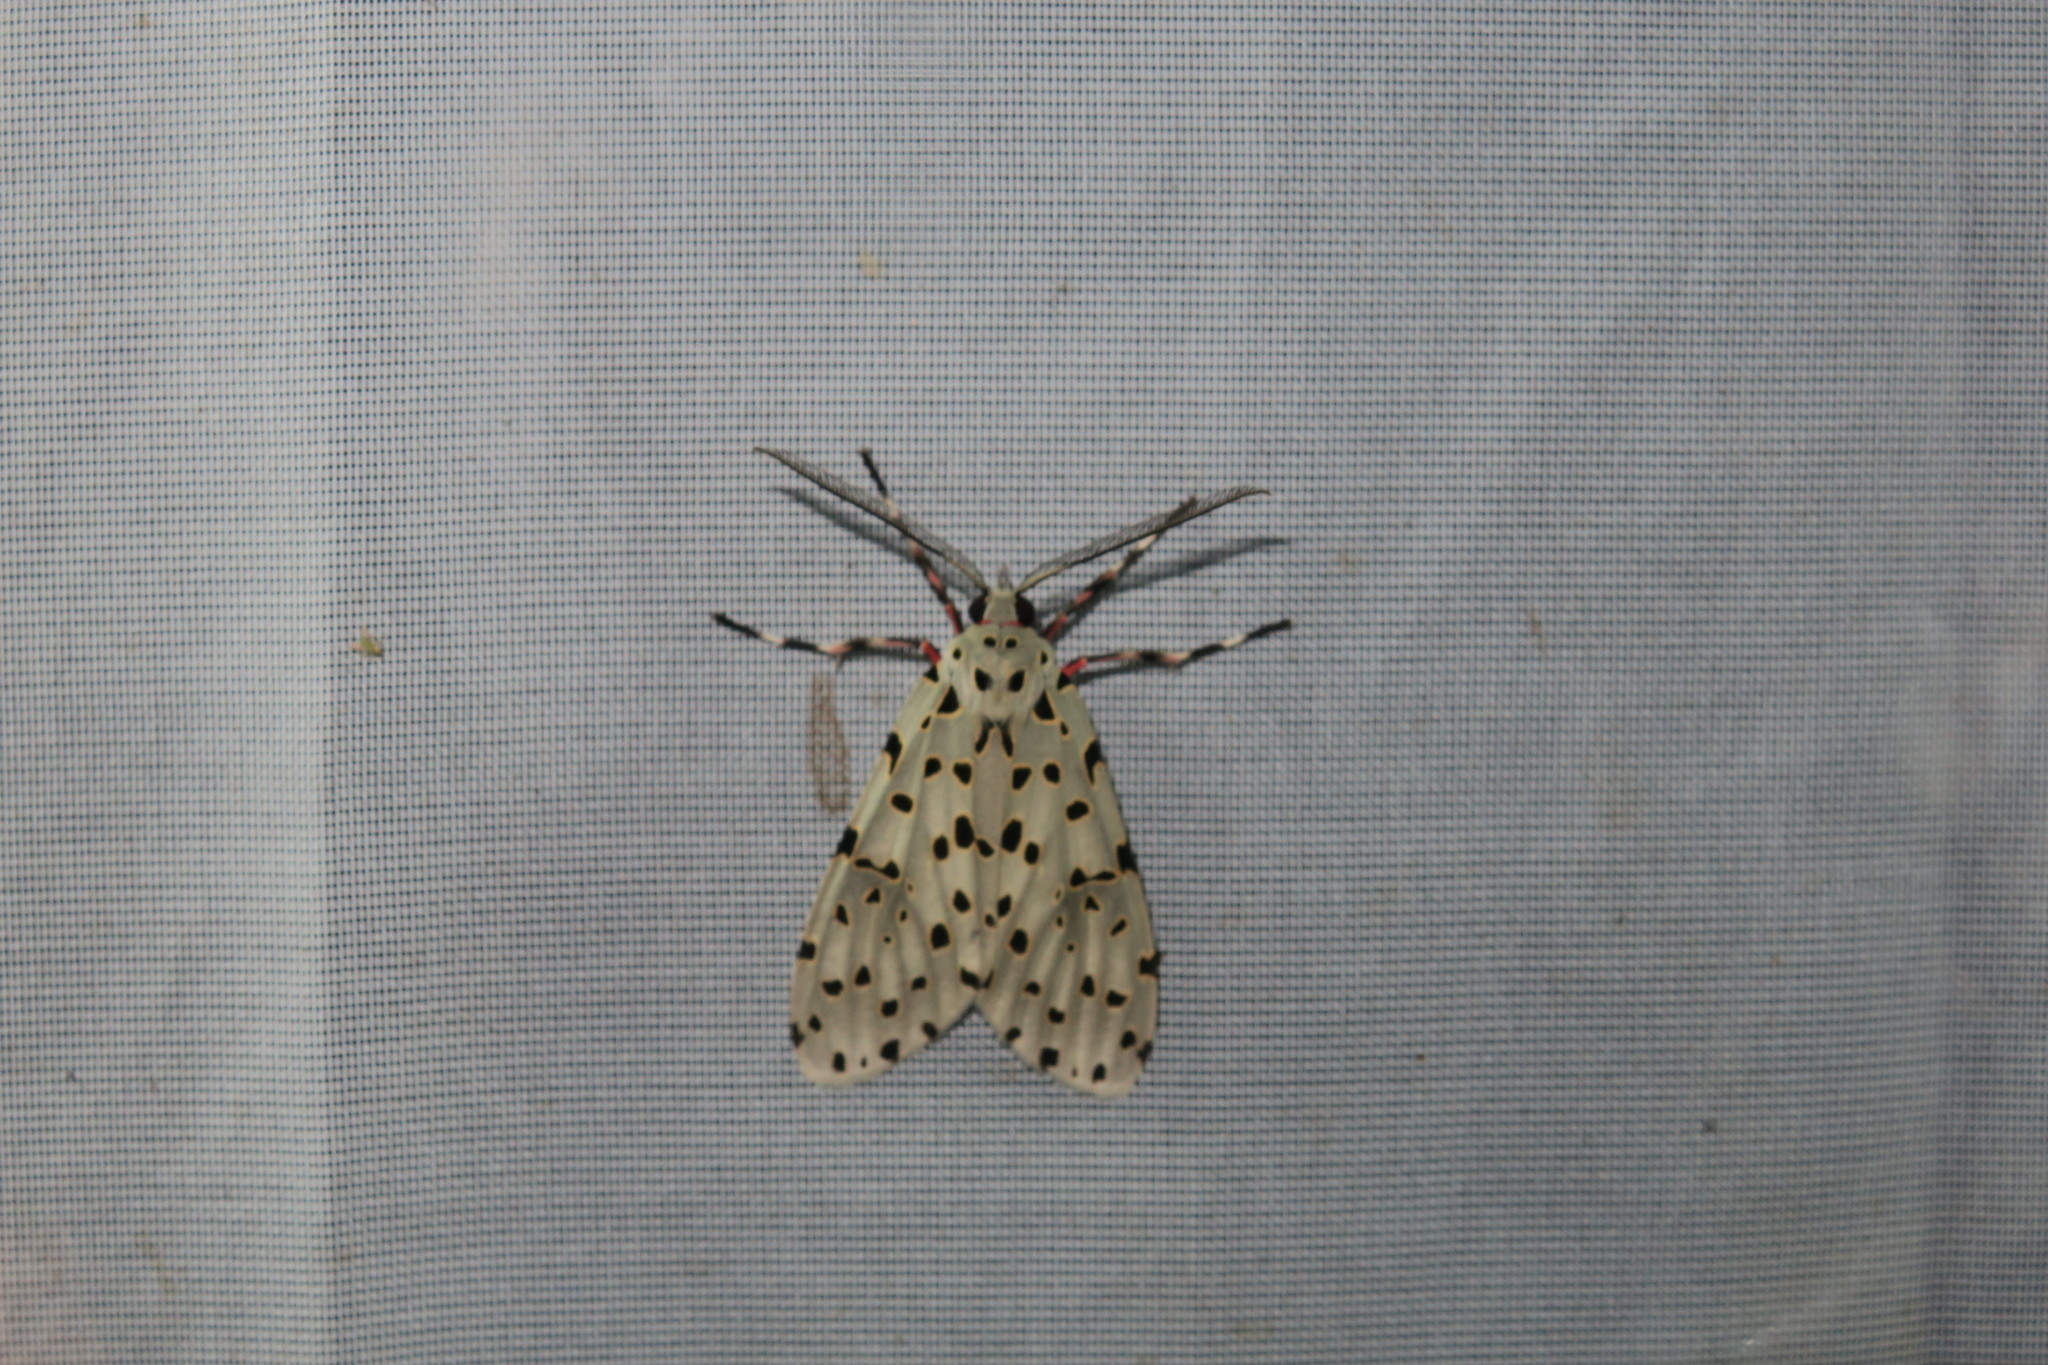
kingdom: Animalia
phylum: Arthropoda
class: Insecta
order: Lepidoptera
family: Erebidae
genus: Eucereon
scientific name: Eucereon formosum
